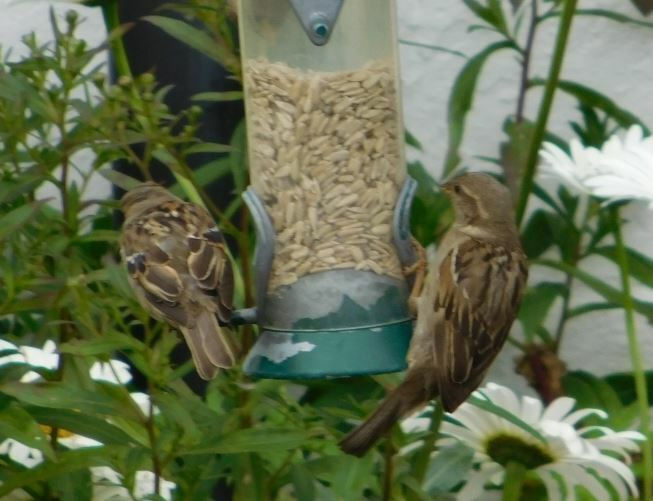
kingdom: Animalia
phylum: Chordata
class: Aves
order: Passeriformes
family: Passeridae
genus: Passer
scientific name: Passer domesticus
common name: House sparrow
